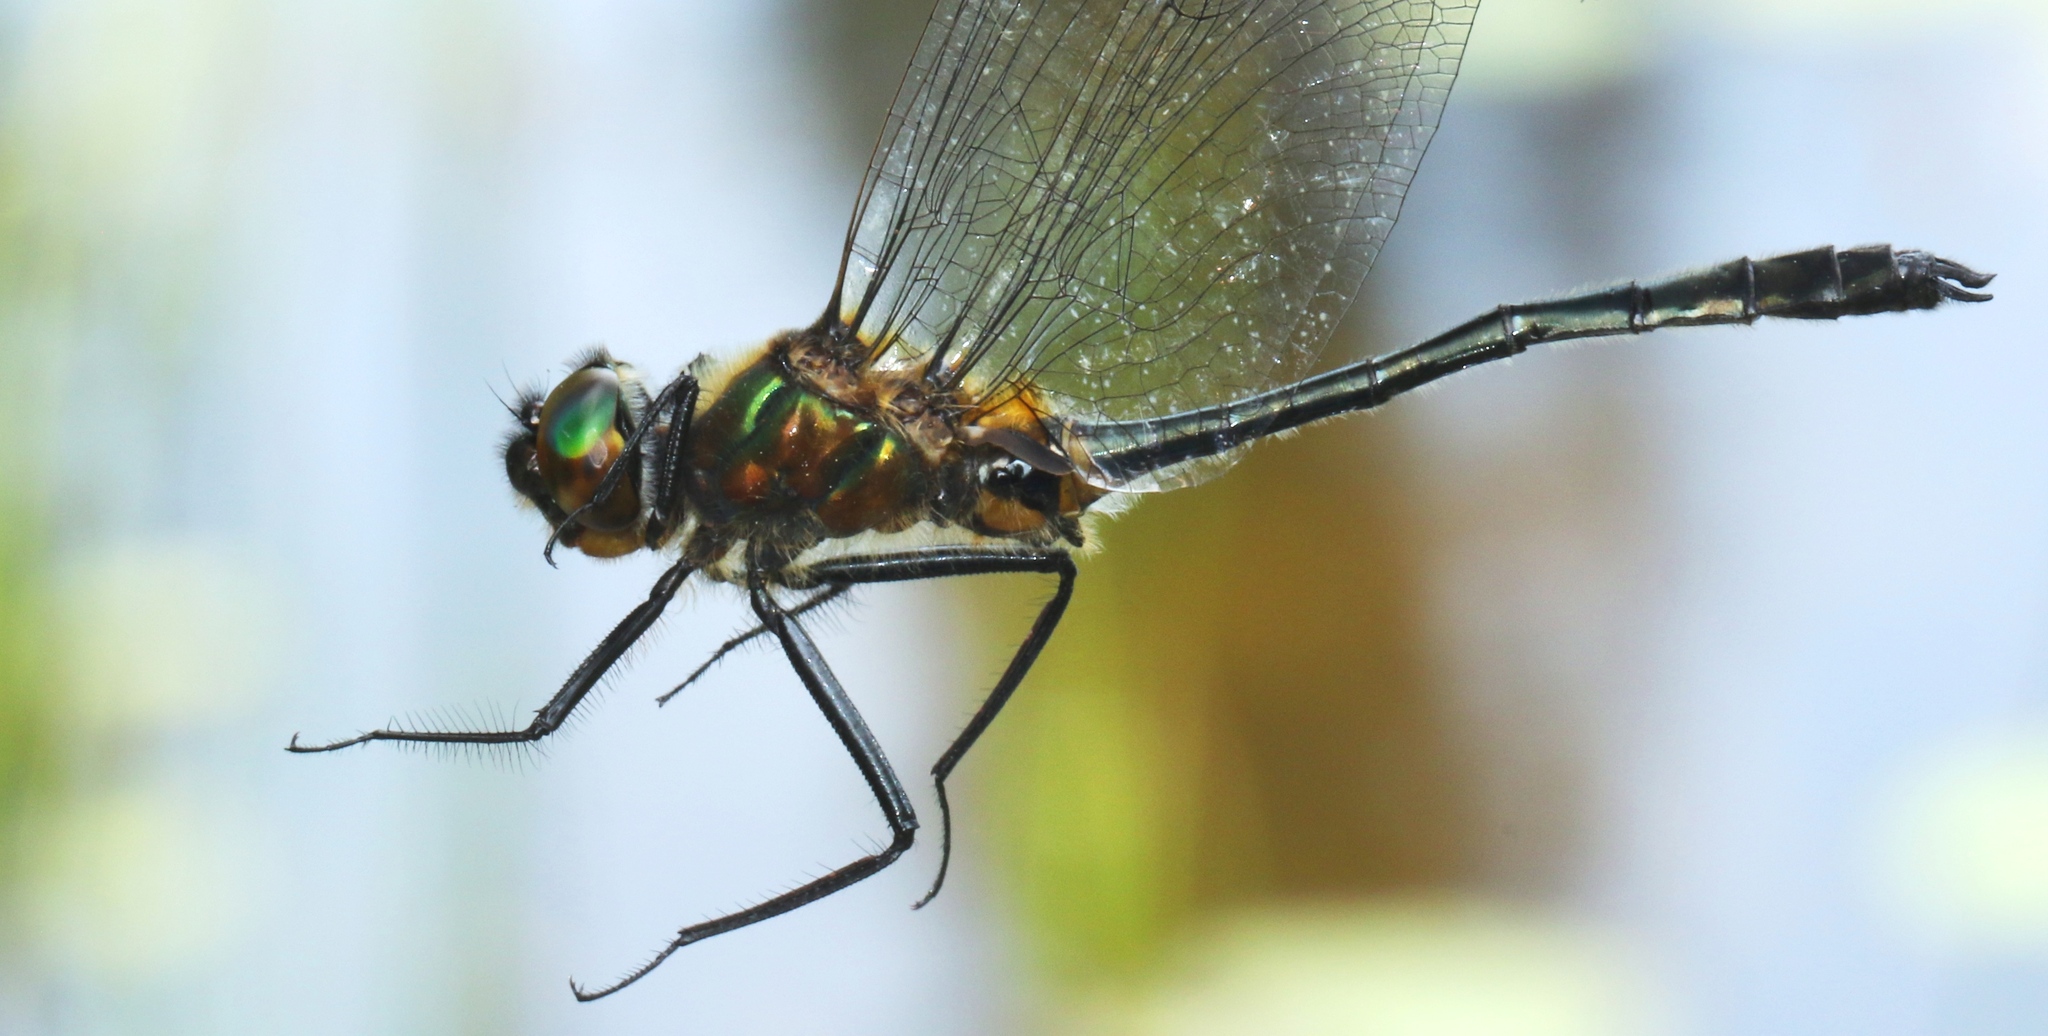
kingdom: Animalia
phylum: Arthropoda
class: Insecta
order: Odonata
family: Corduliidae
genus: Dorocordulia
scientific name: Dorocordulia libera
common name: Racket-tailed emerald
